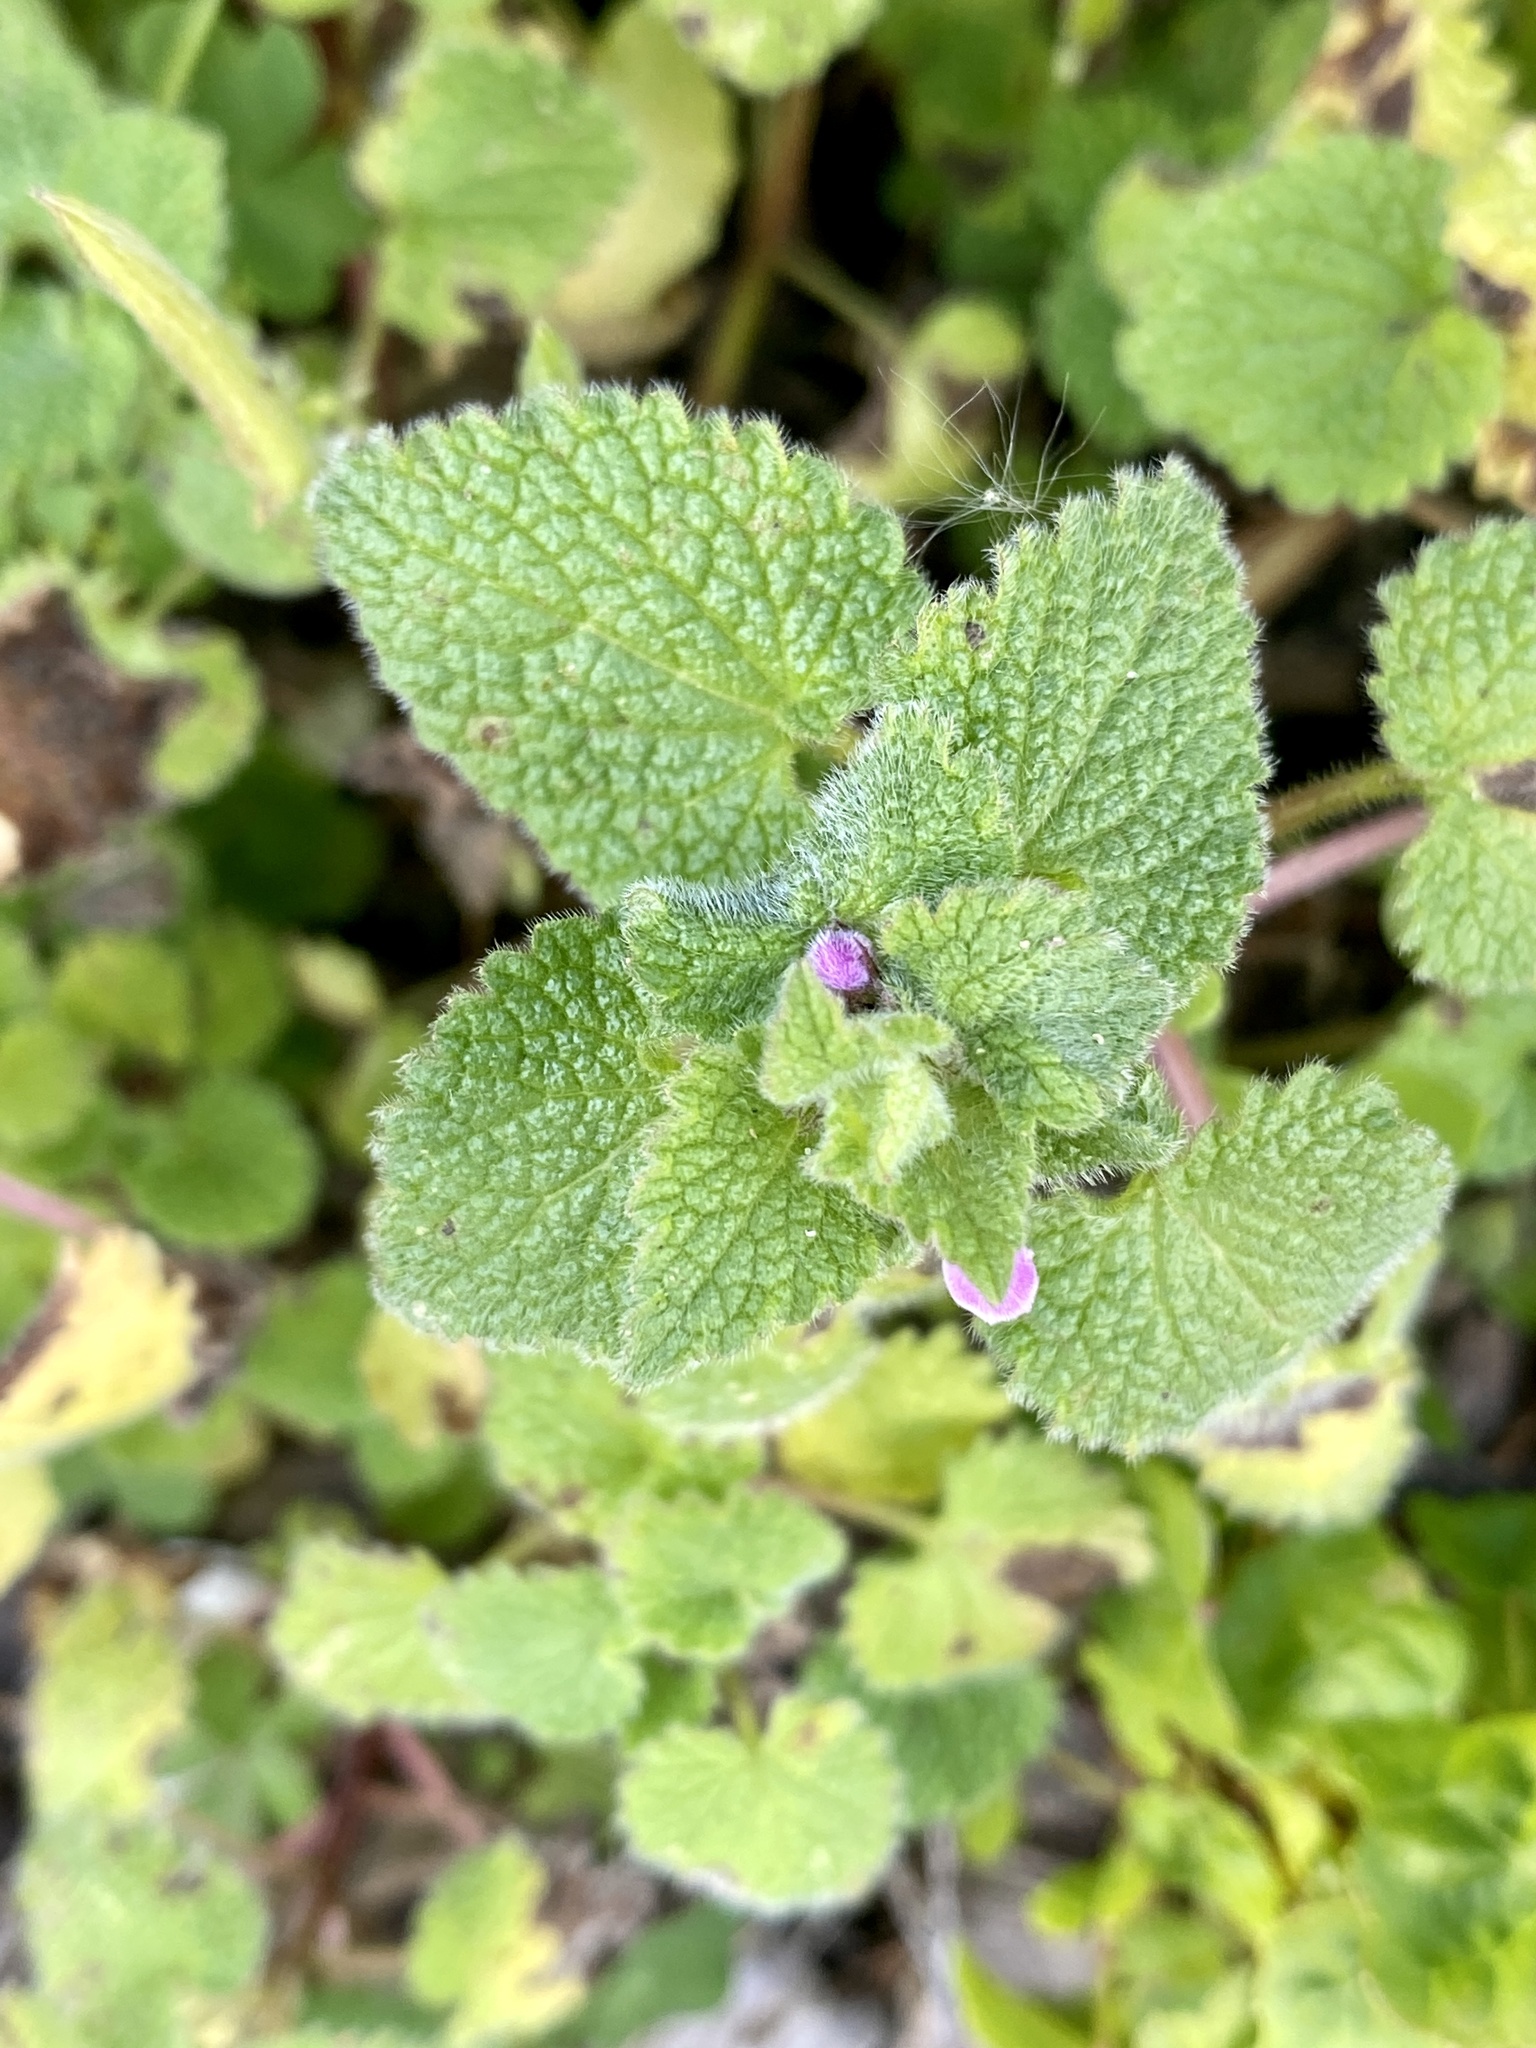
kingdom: Plantae
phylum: Tracheophyta
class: Magnoliopsida
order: Lamiales
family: Lamiaceae
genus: Lamium
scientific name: Lamium purpureum
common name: Red dead-nettle
